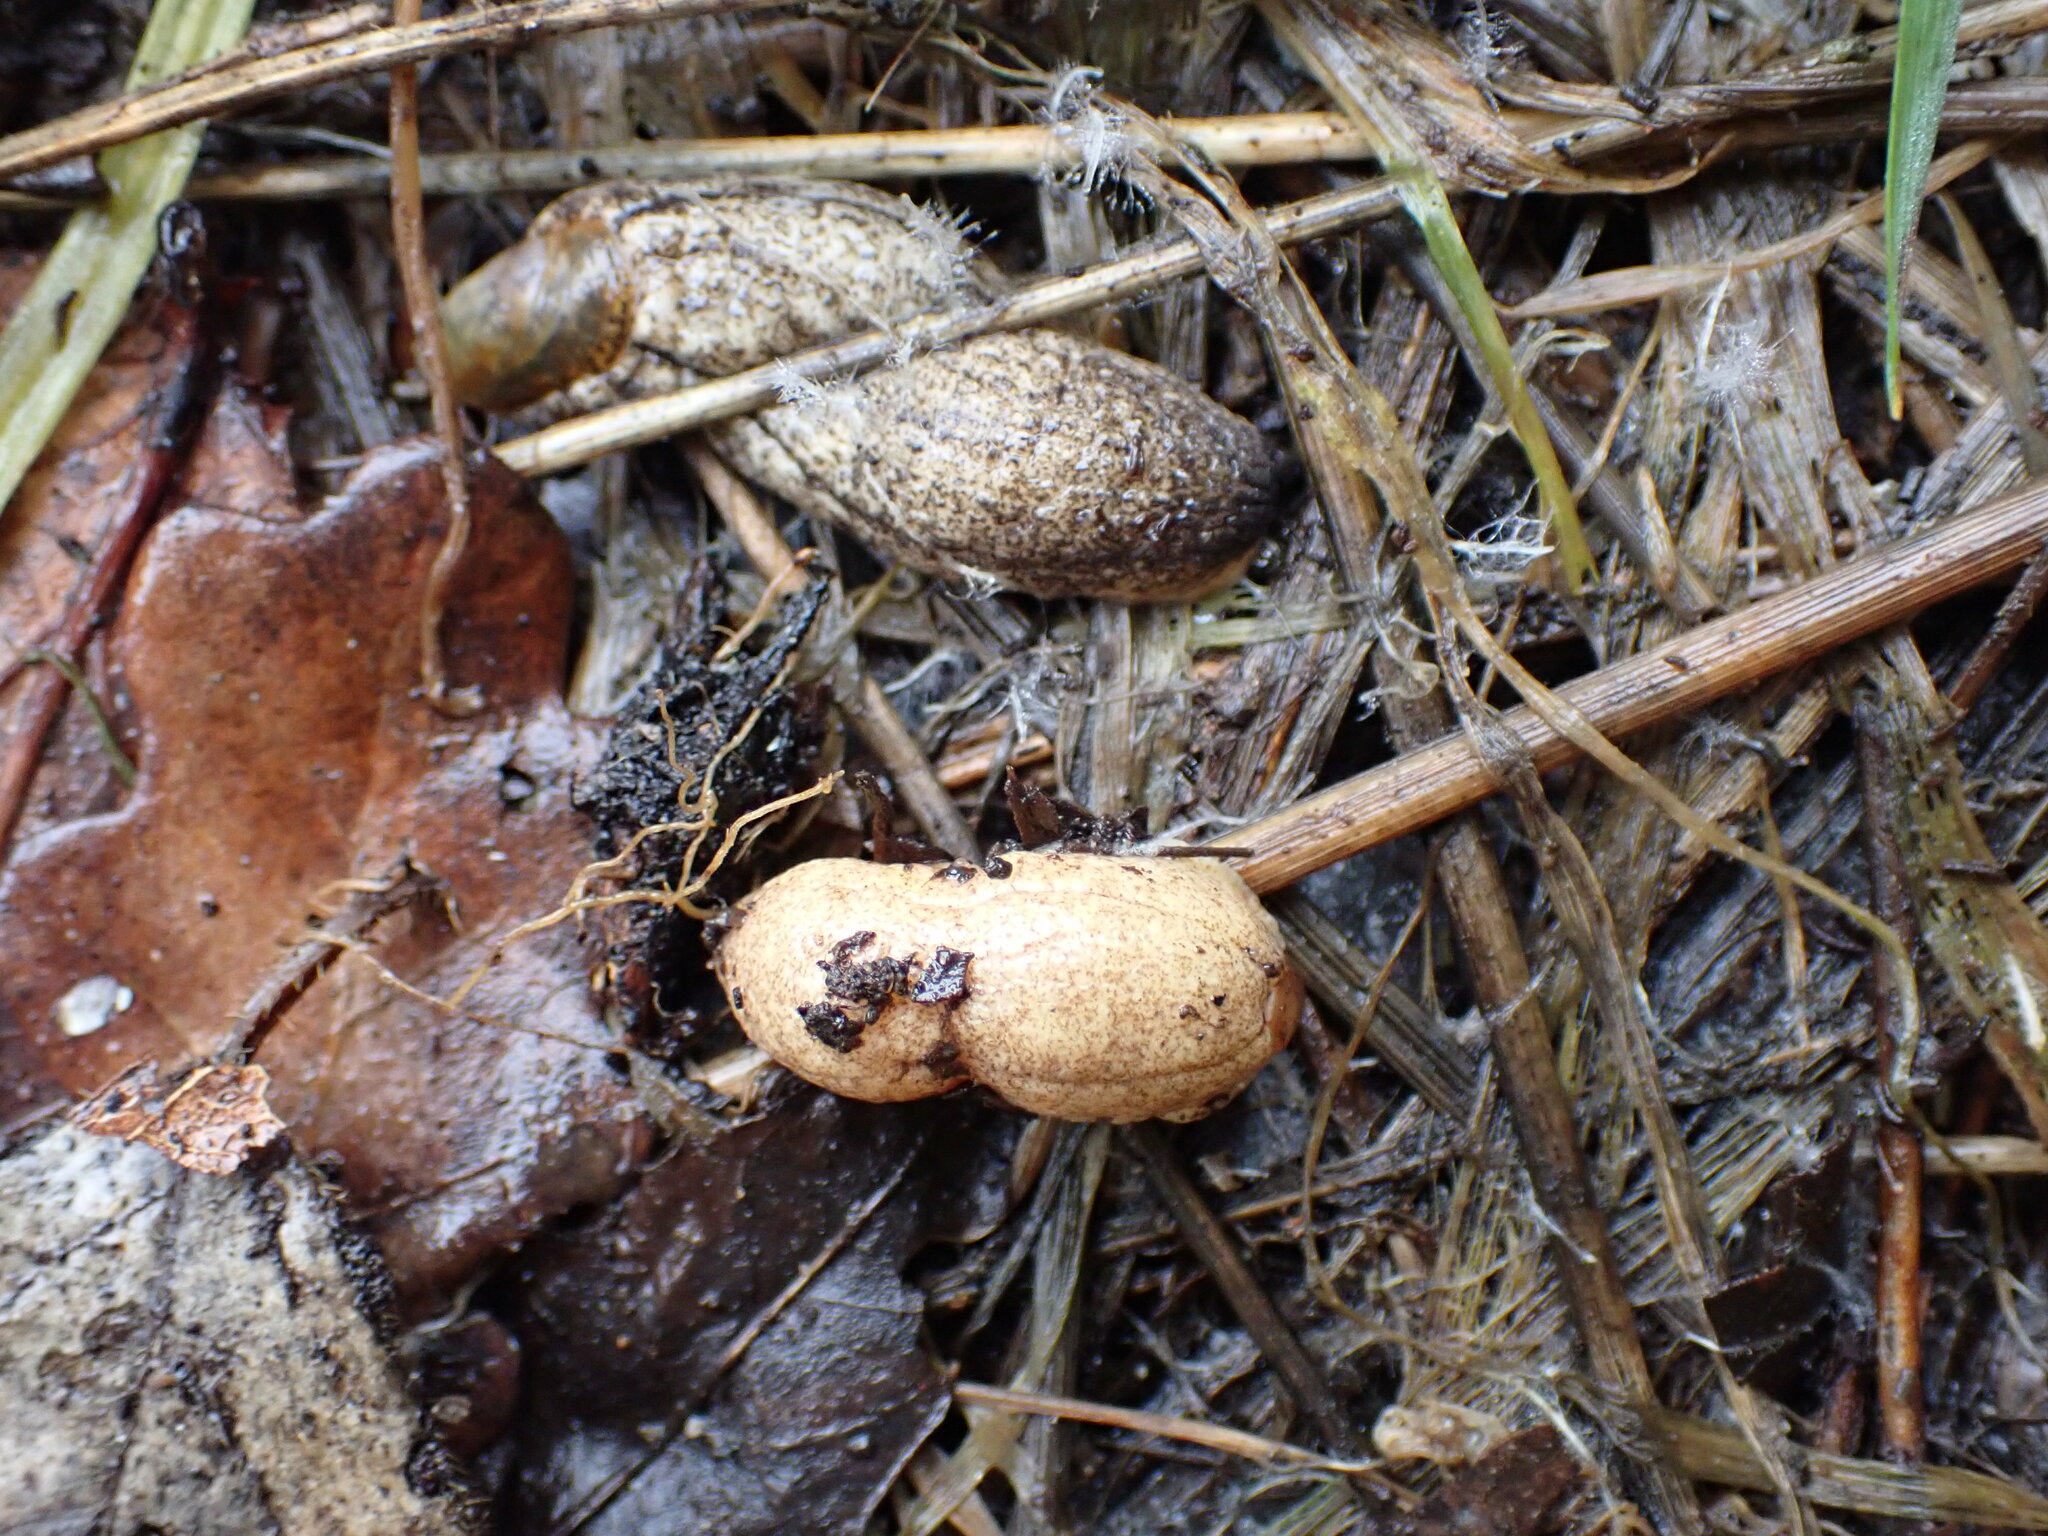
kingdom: Animalia
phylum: Mollusca
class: Gastropoda
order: Stylommatophora
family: Testacellidae
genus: Testacella
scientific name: Testacella maugei
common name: Mauge's slug
